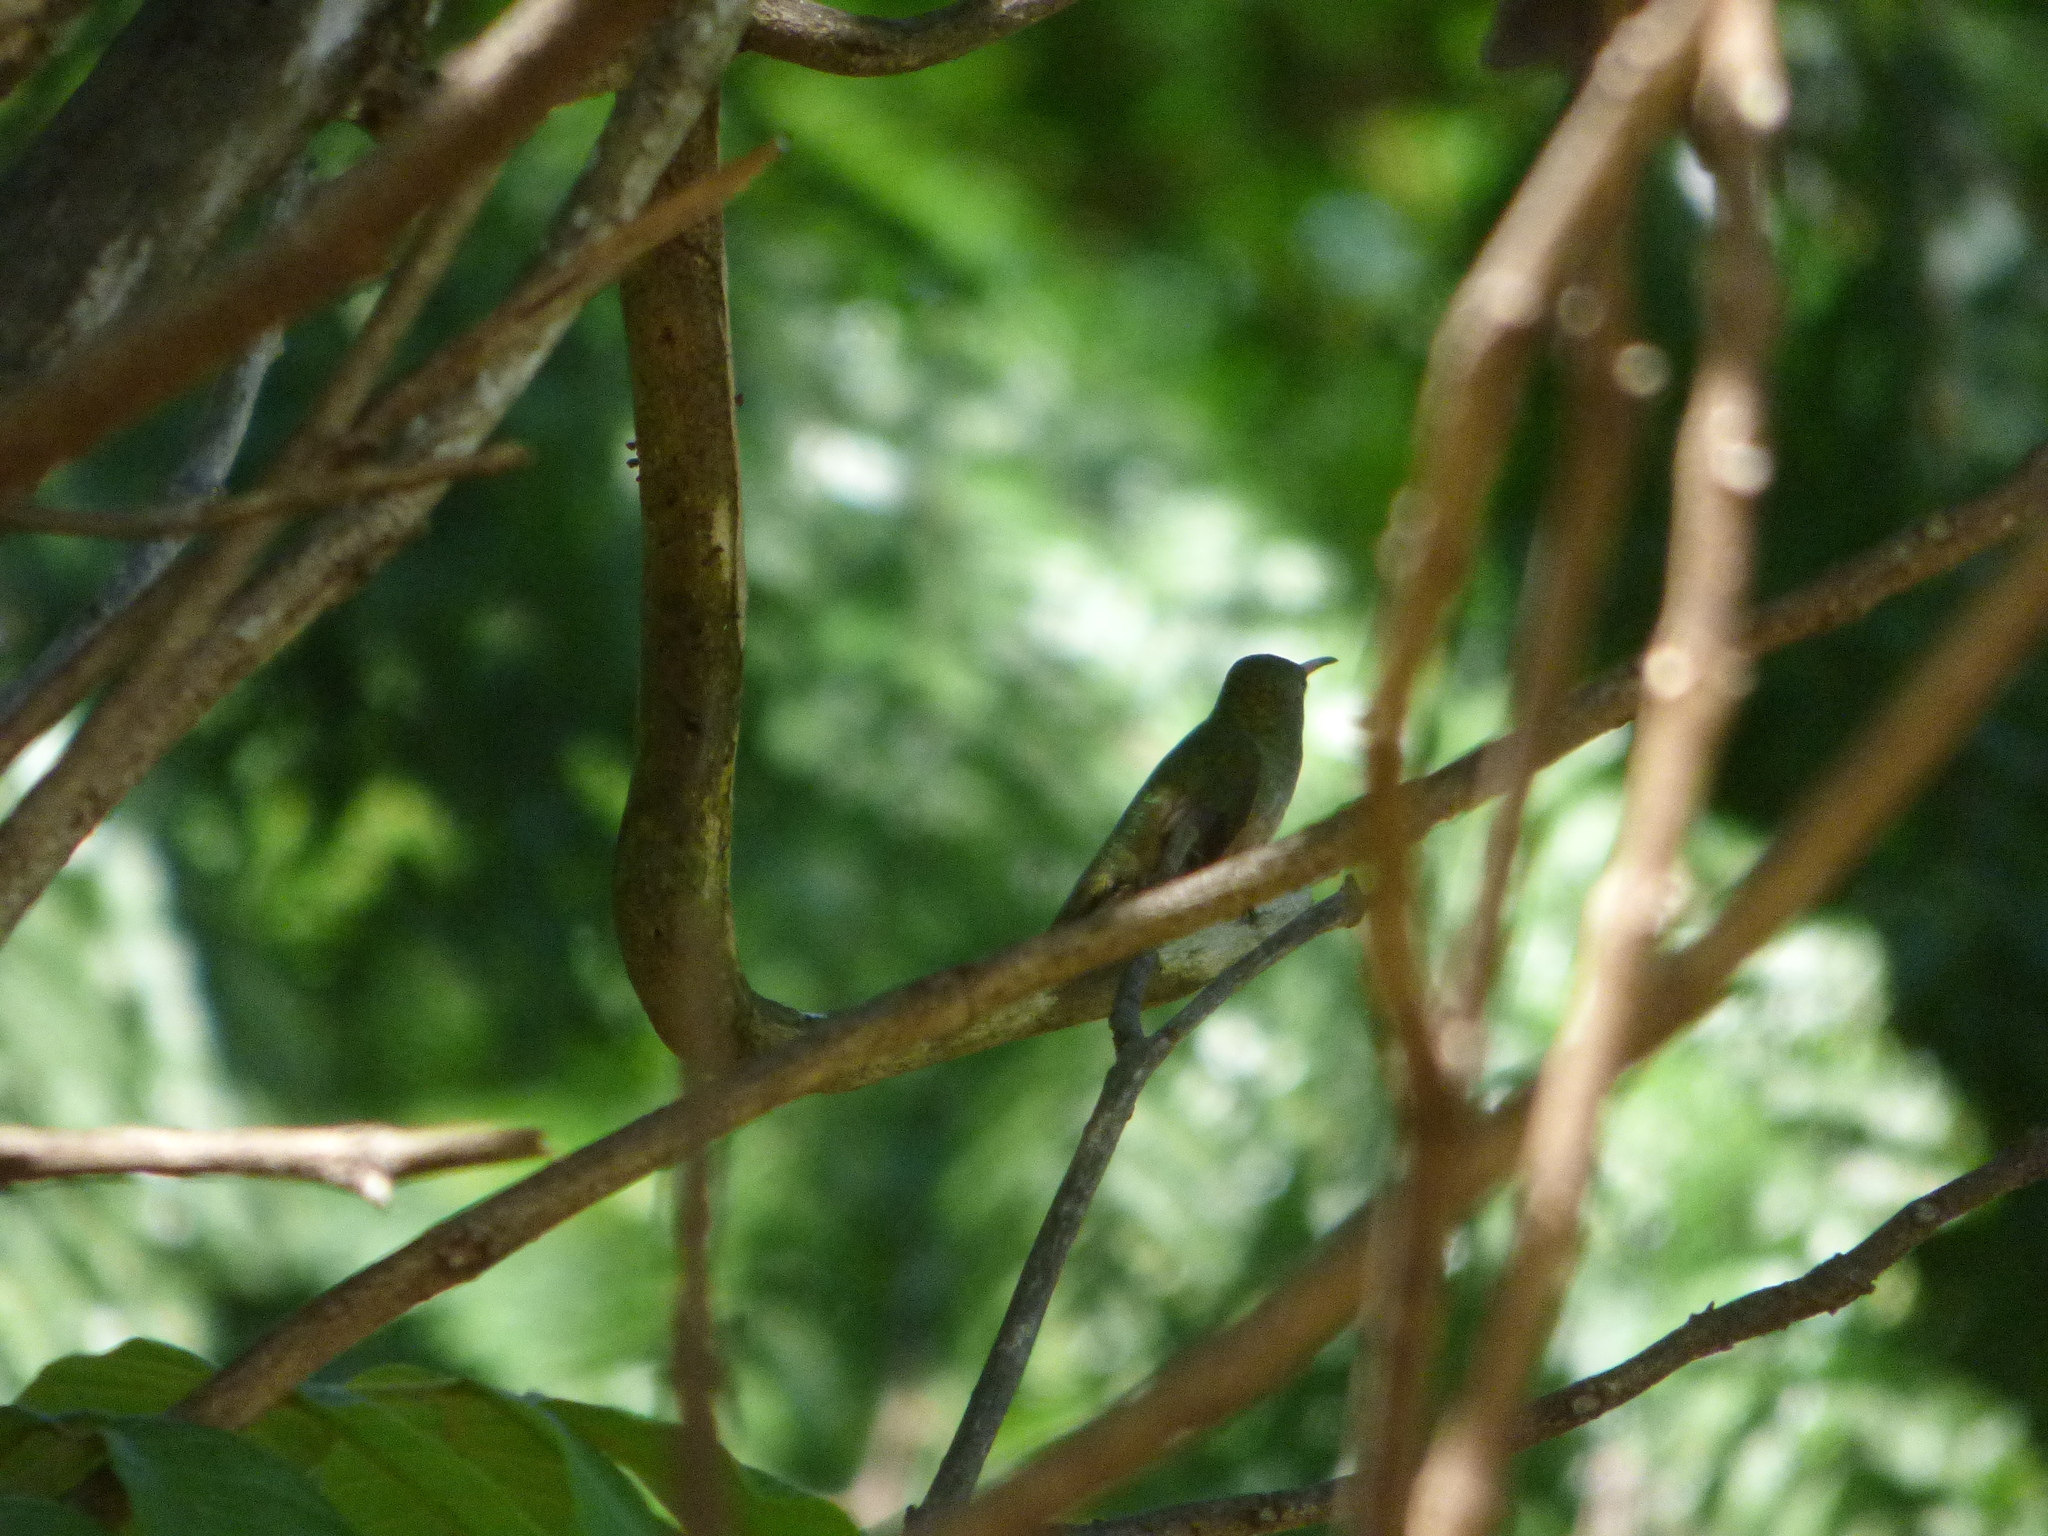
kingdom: Animalia
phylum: Chordata
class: Aves
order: Apodiformes
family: Trochilidae
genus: Hylocharis
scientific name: Hylocharis chrysura
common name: Gilded sapphire
